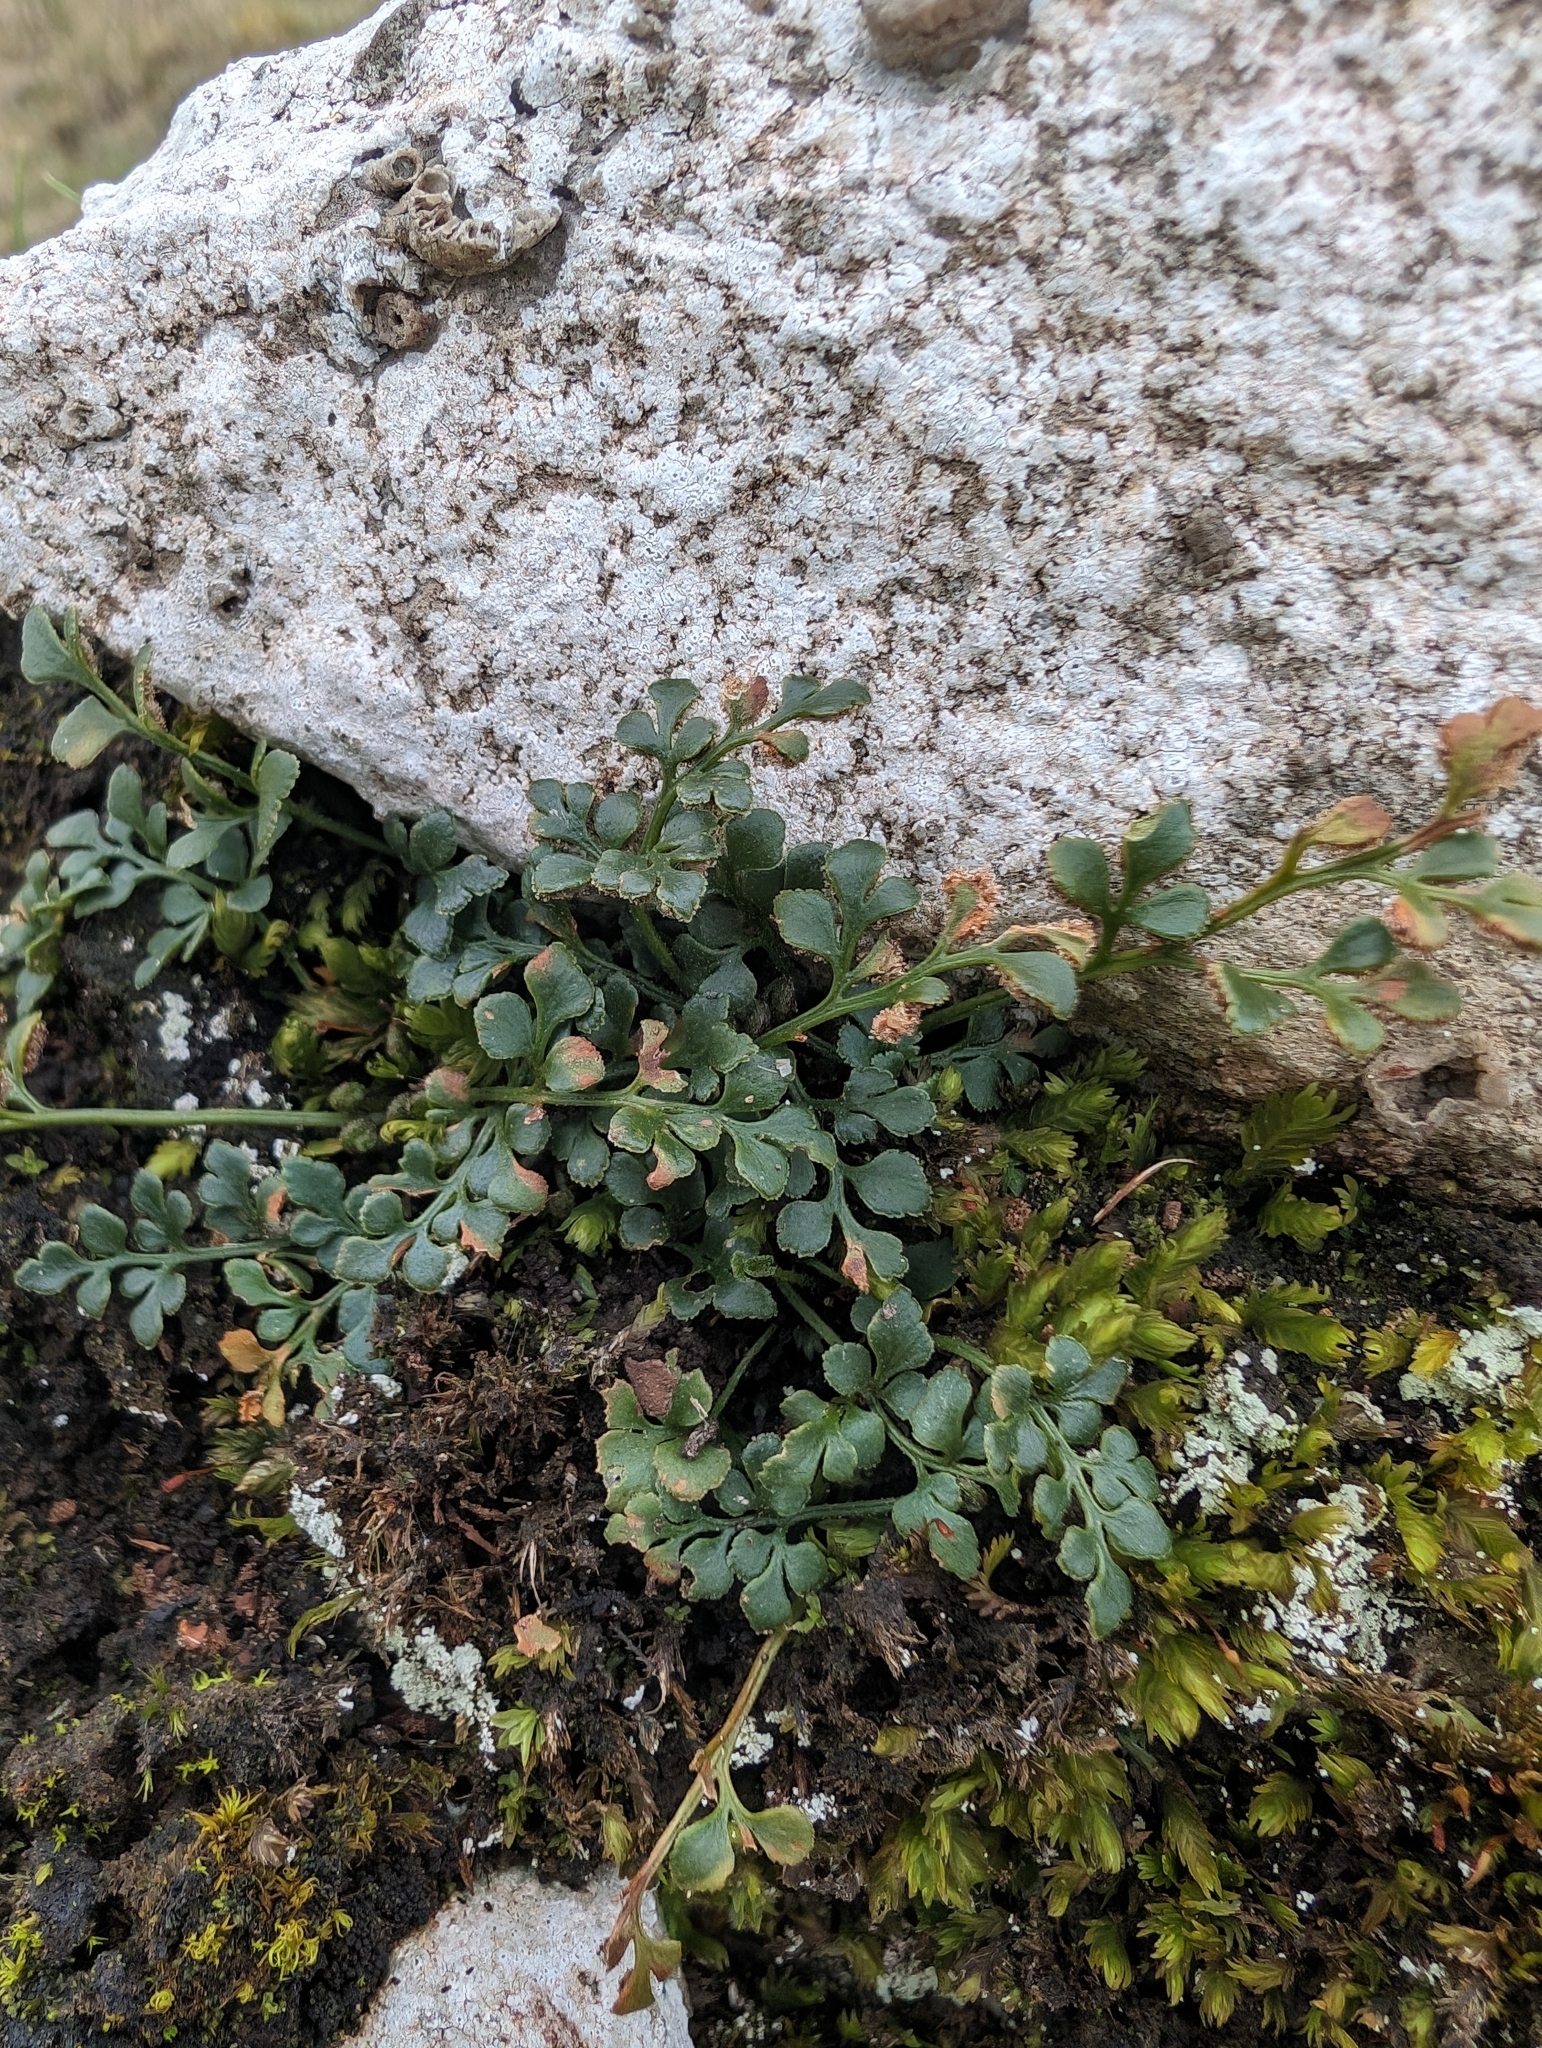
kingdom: Plantae
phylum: Tracheophyta
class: Polypodiopsida
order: Polypodiales
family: Aspleniaceae
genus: Asplenium
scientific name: Asplenium ruta-muraria
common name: Wall-rue
